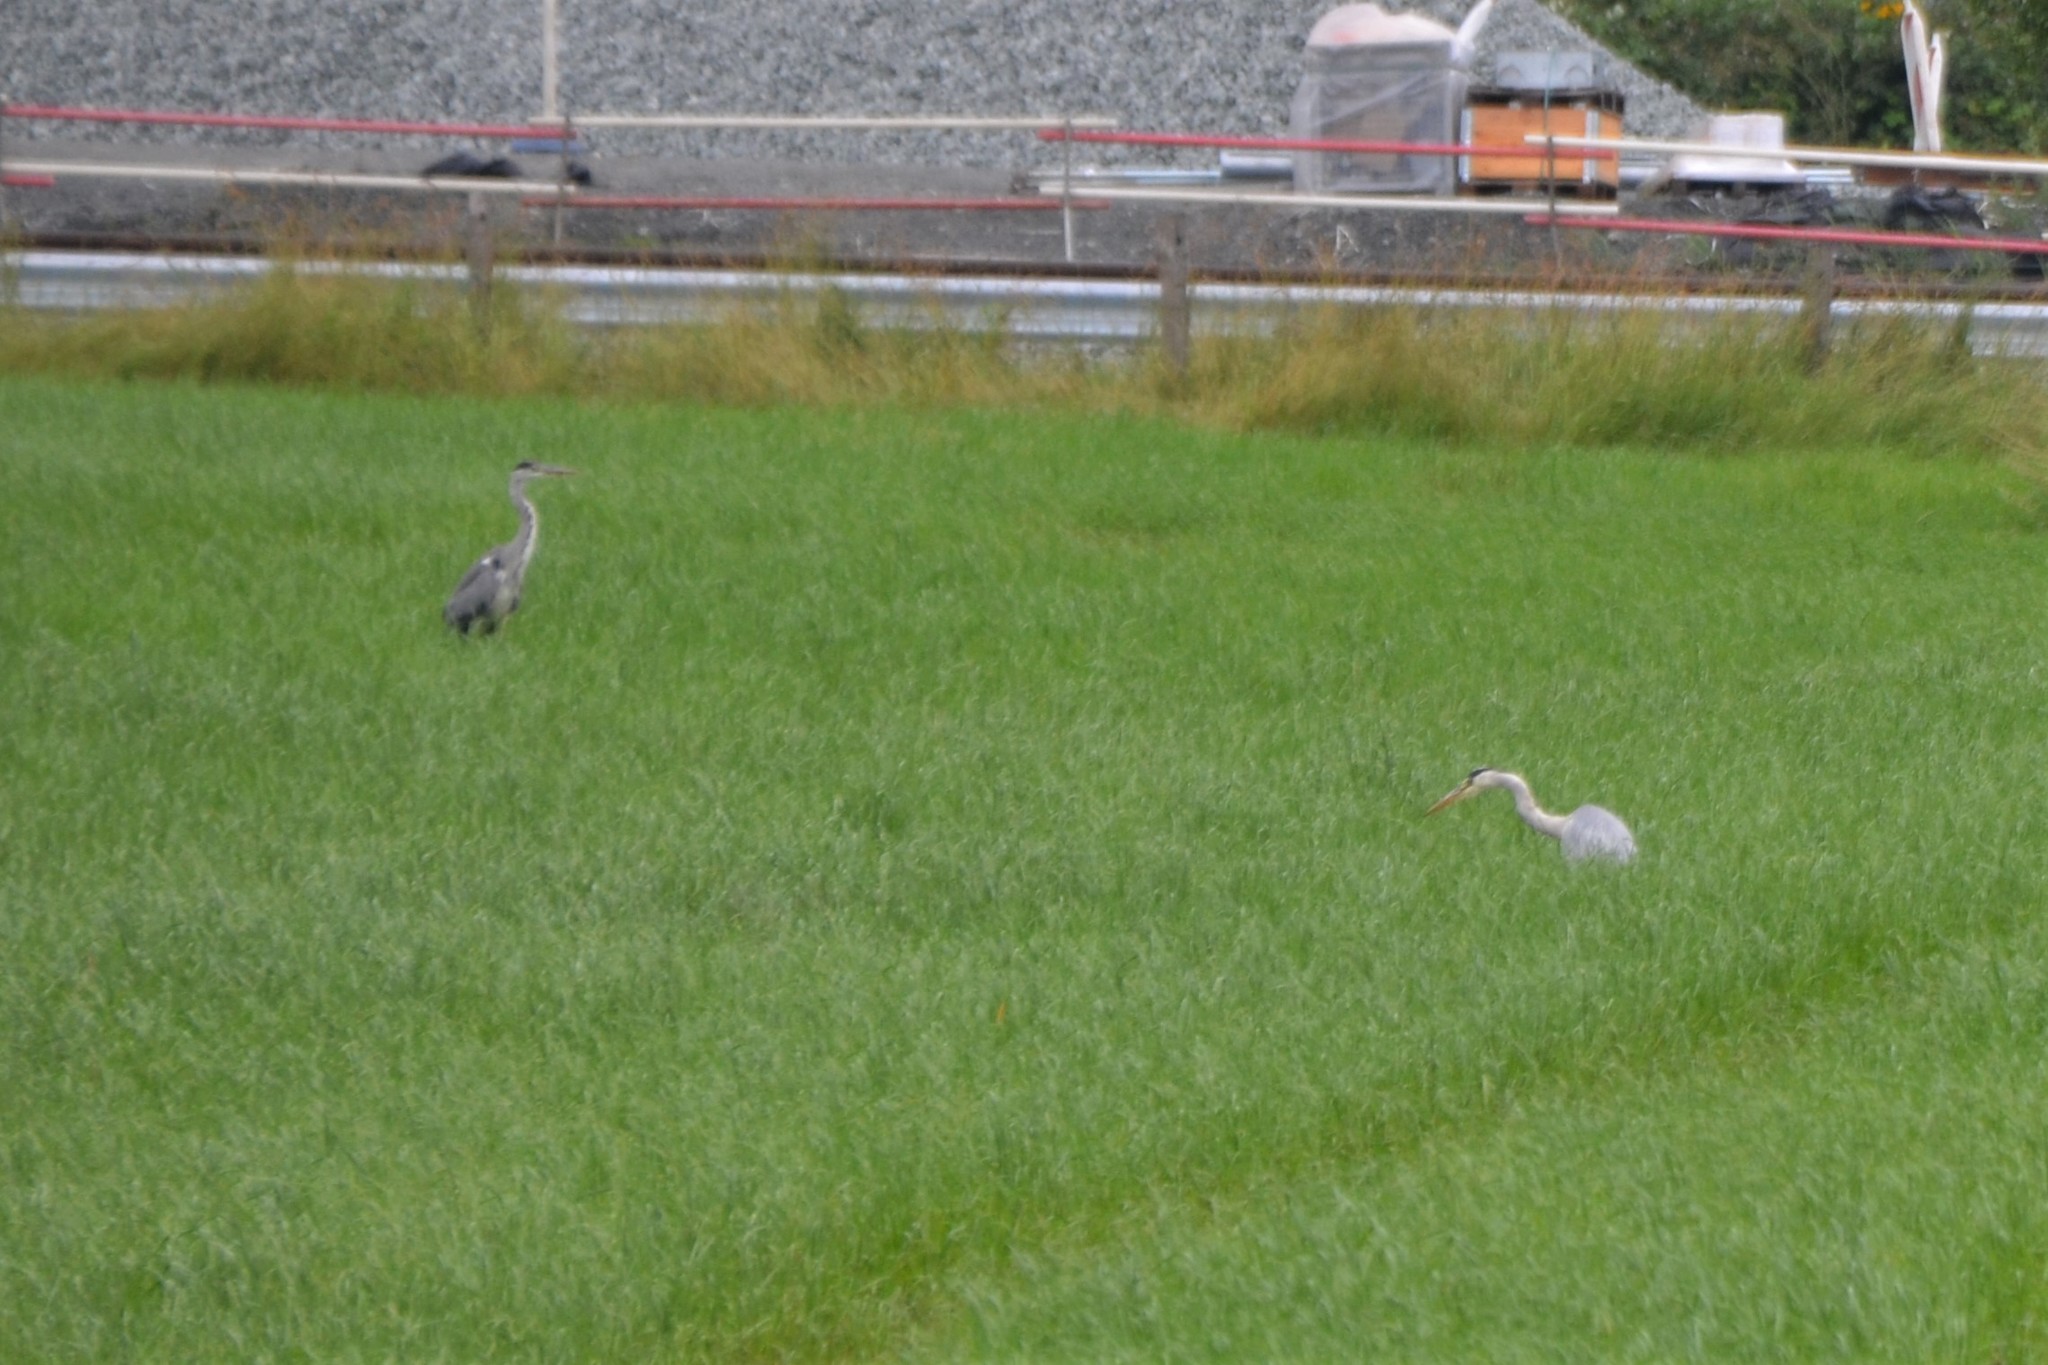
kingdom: Animalia
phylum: Chordata
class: Aves
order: Pelecaniformes
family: Ardeidae
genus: Ardea
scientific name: Ardea cinerea
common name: Grey heron
